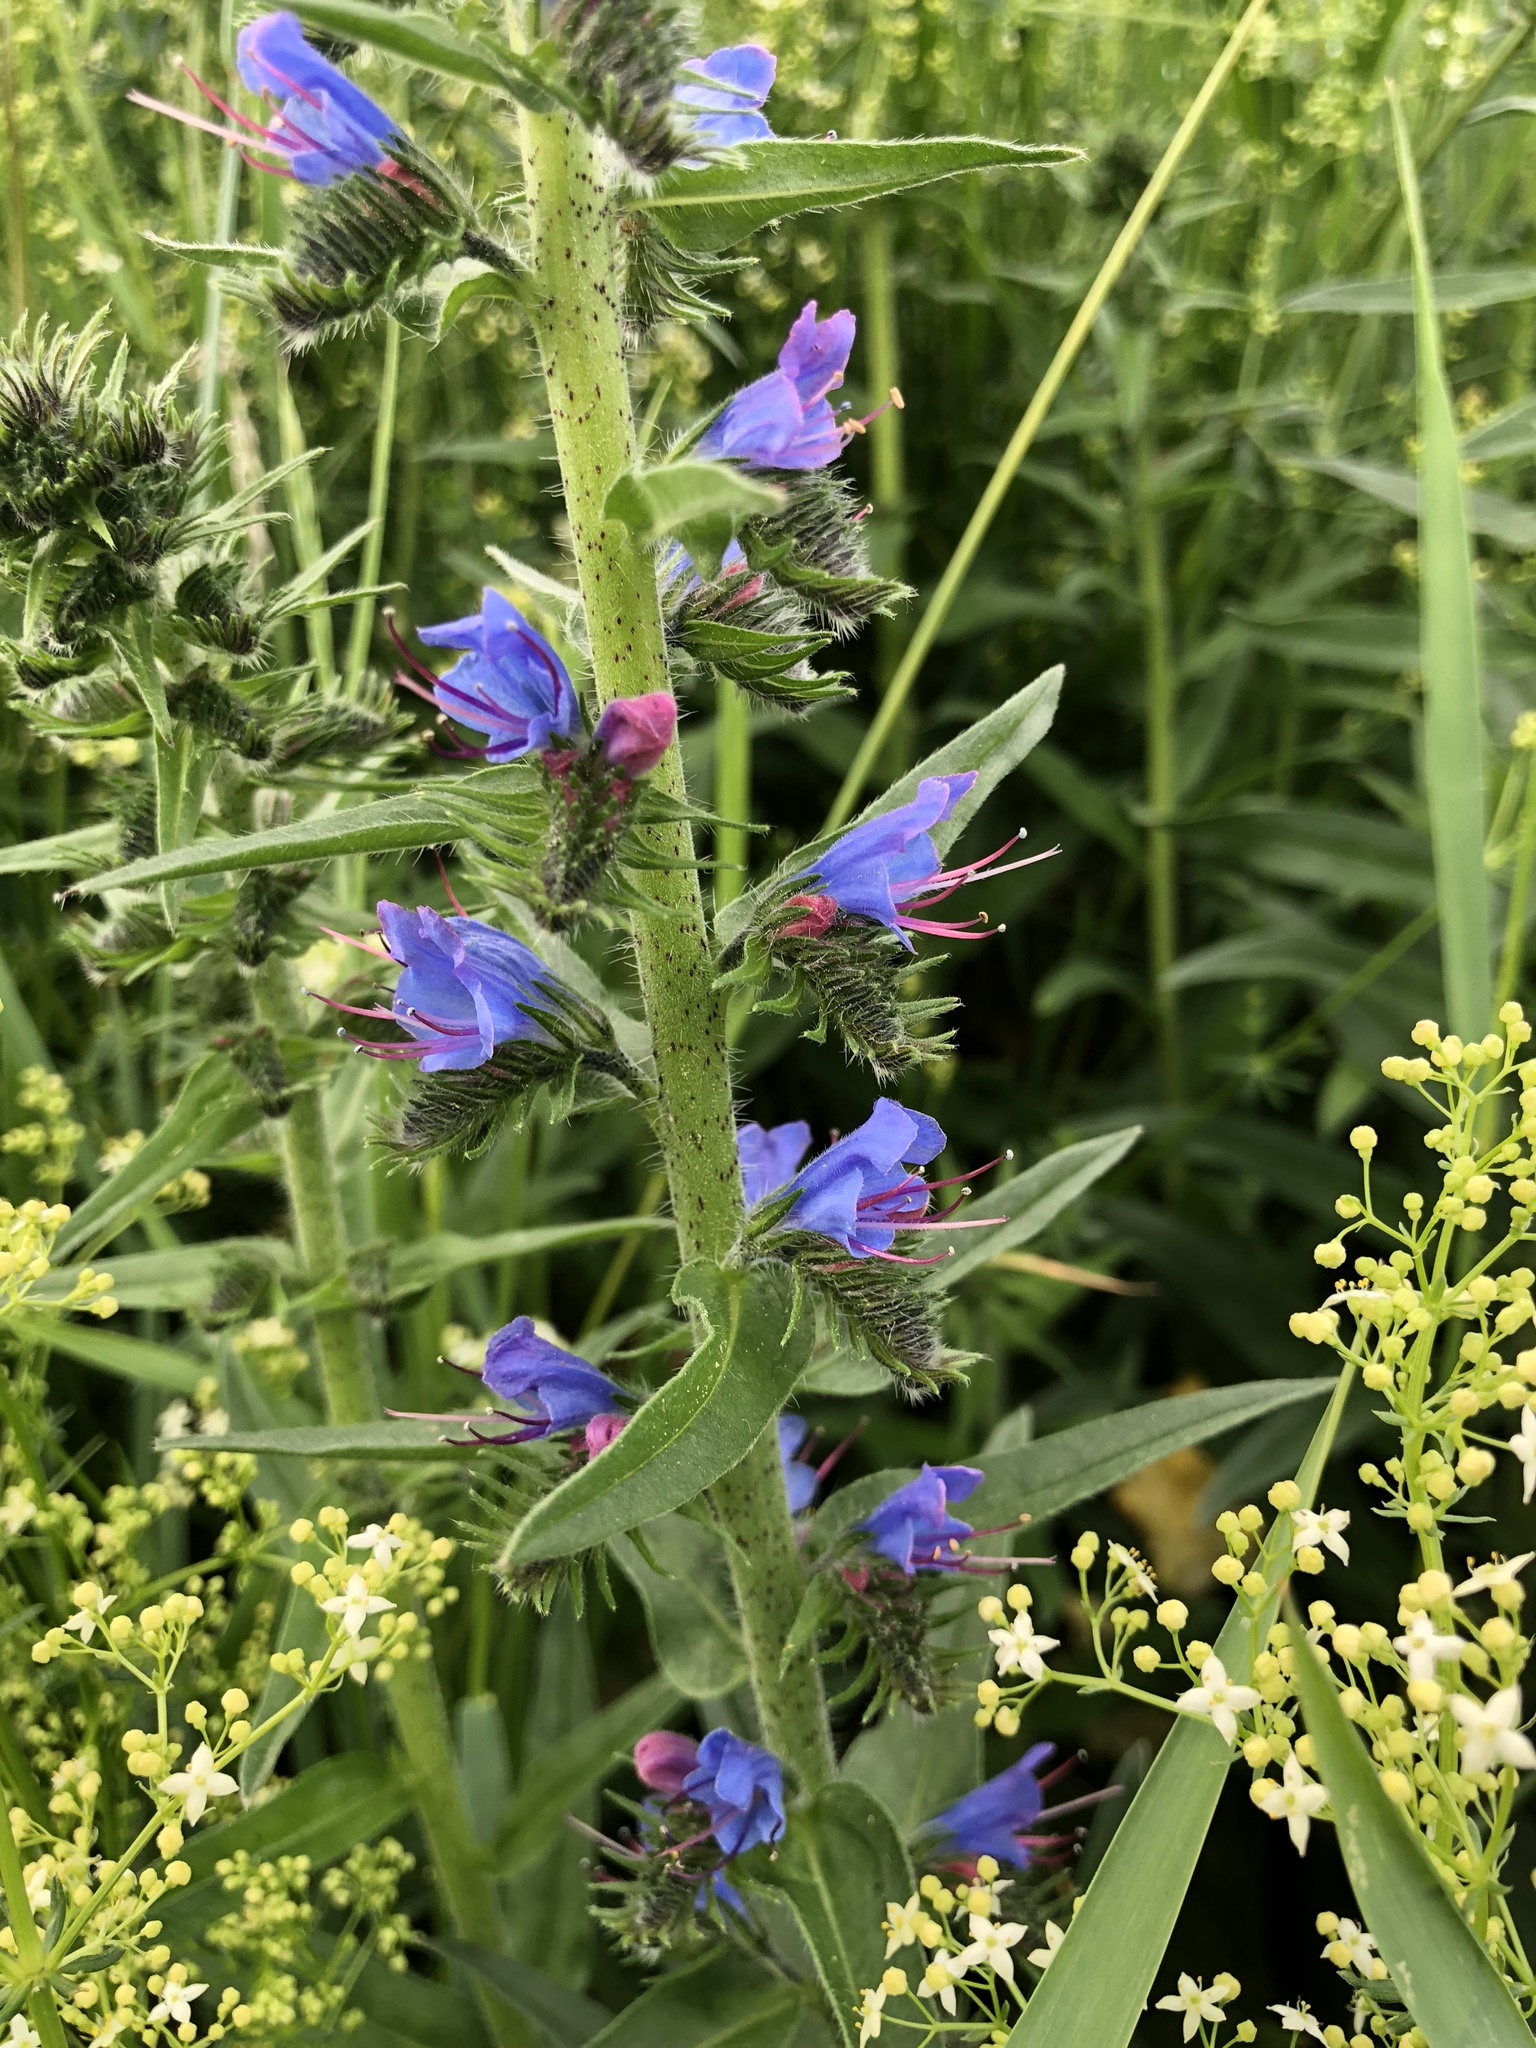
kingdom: Plantae
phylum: Tracheophyta
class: Magnoliopsida
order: Boraginales
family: Boraginaceae
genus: Echium
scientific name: Echium vulgare
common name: Common viper's bugloss
